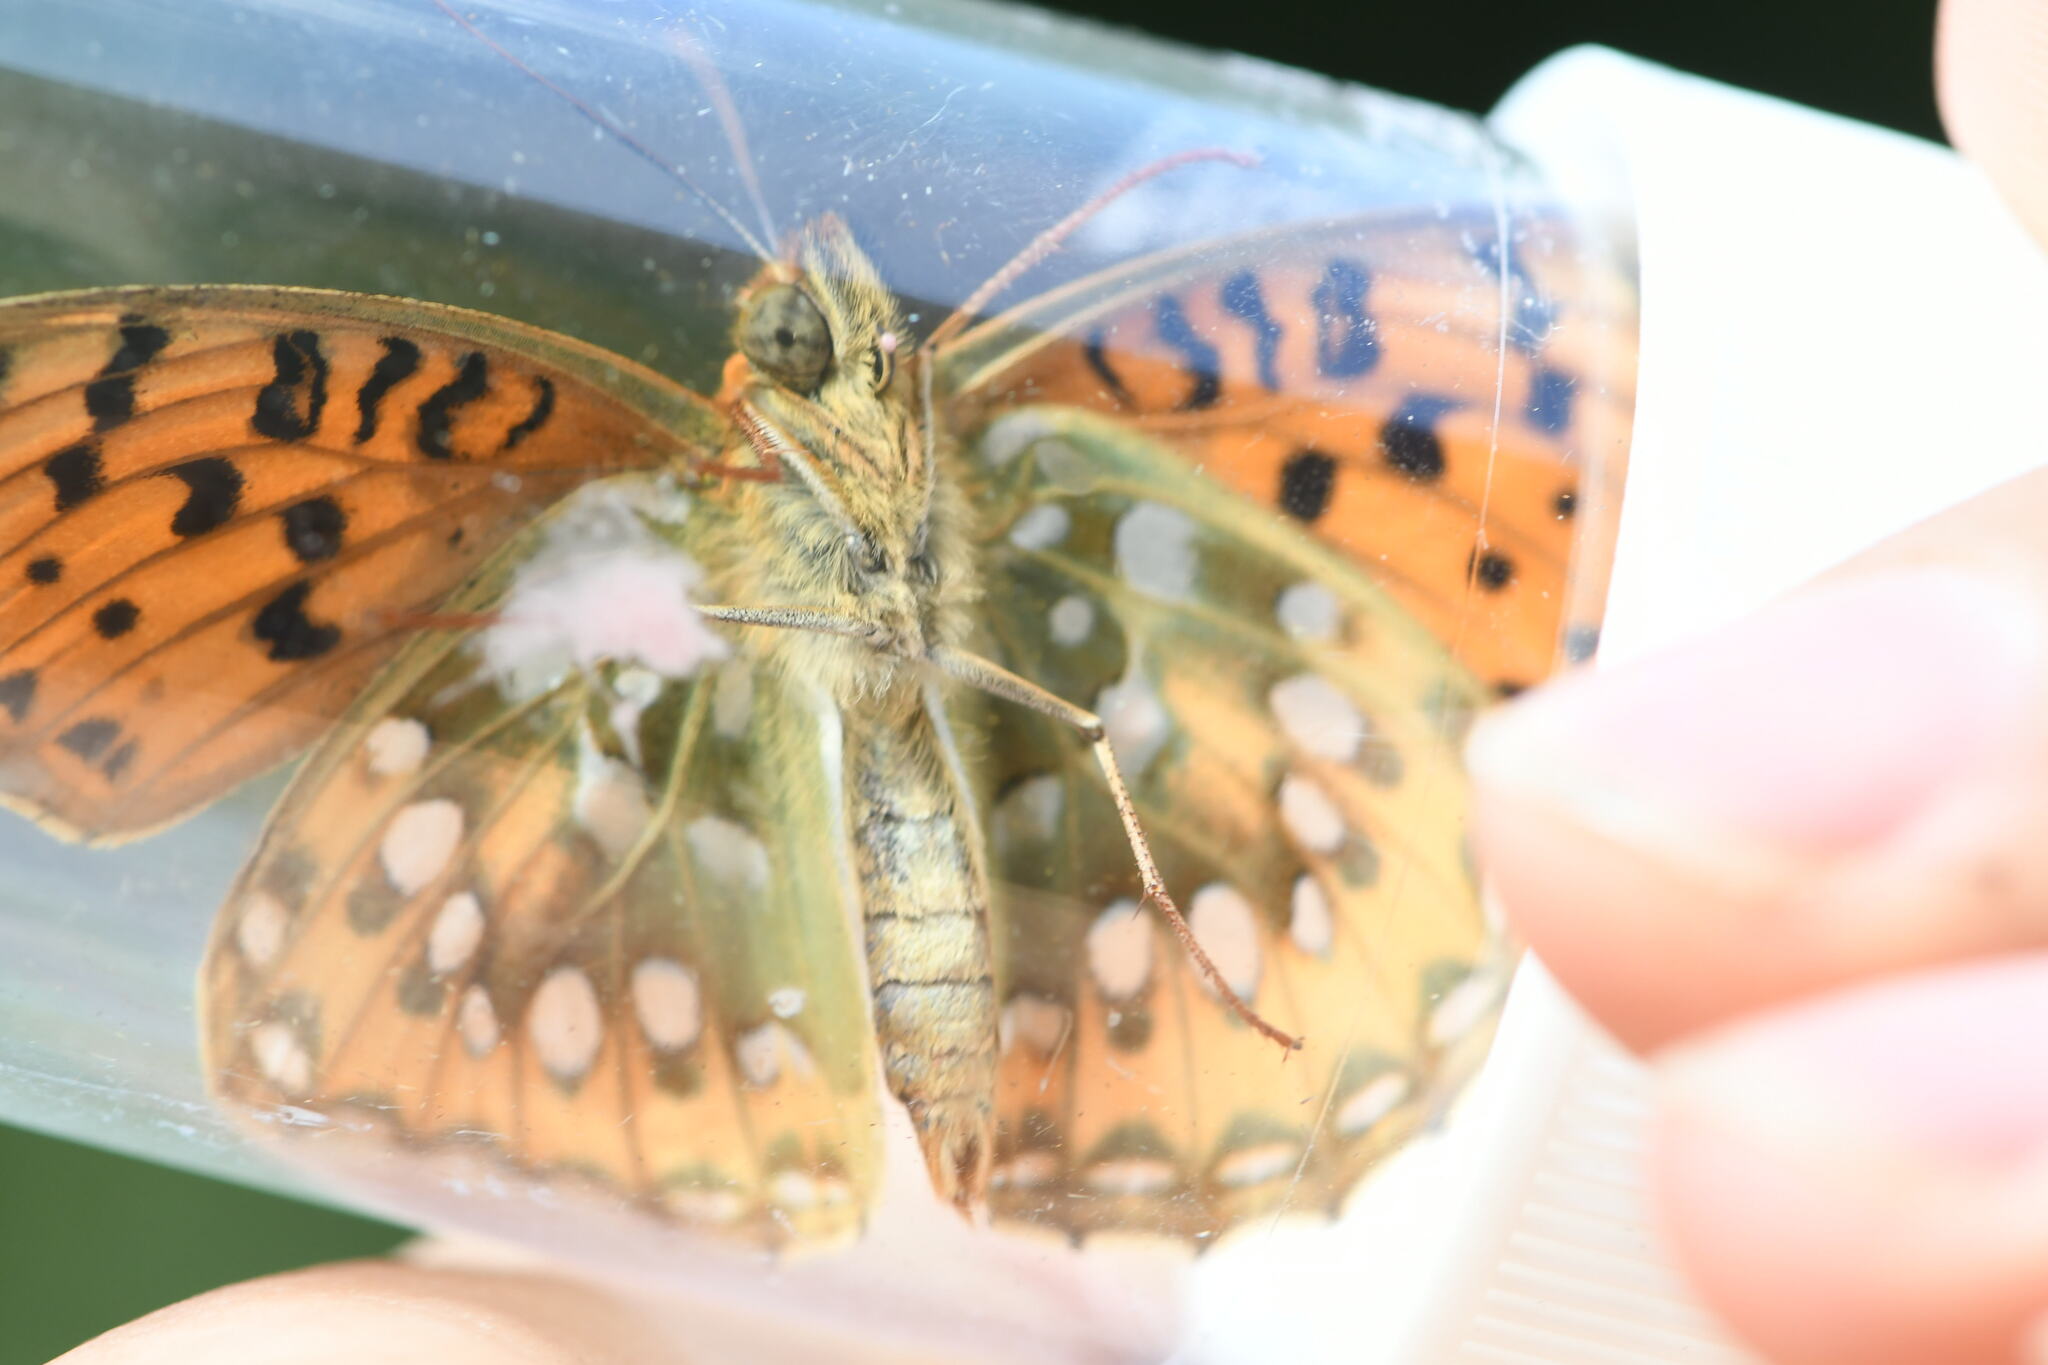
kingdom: Animalia
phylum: Arthropoda
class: Insecta
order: Lepidoptera
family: Nymphalidae
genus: Speyeria
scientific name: Speyeria aglaja
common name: Dark green fritillary
